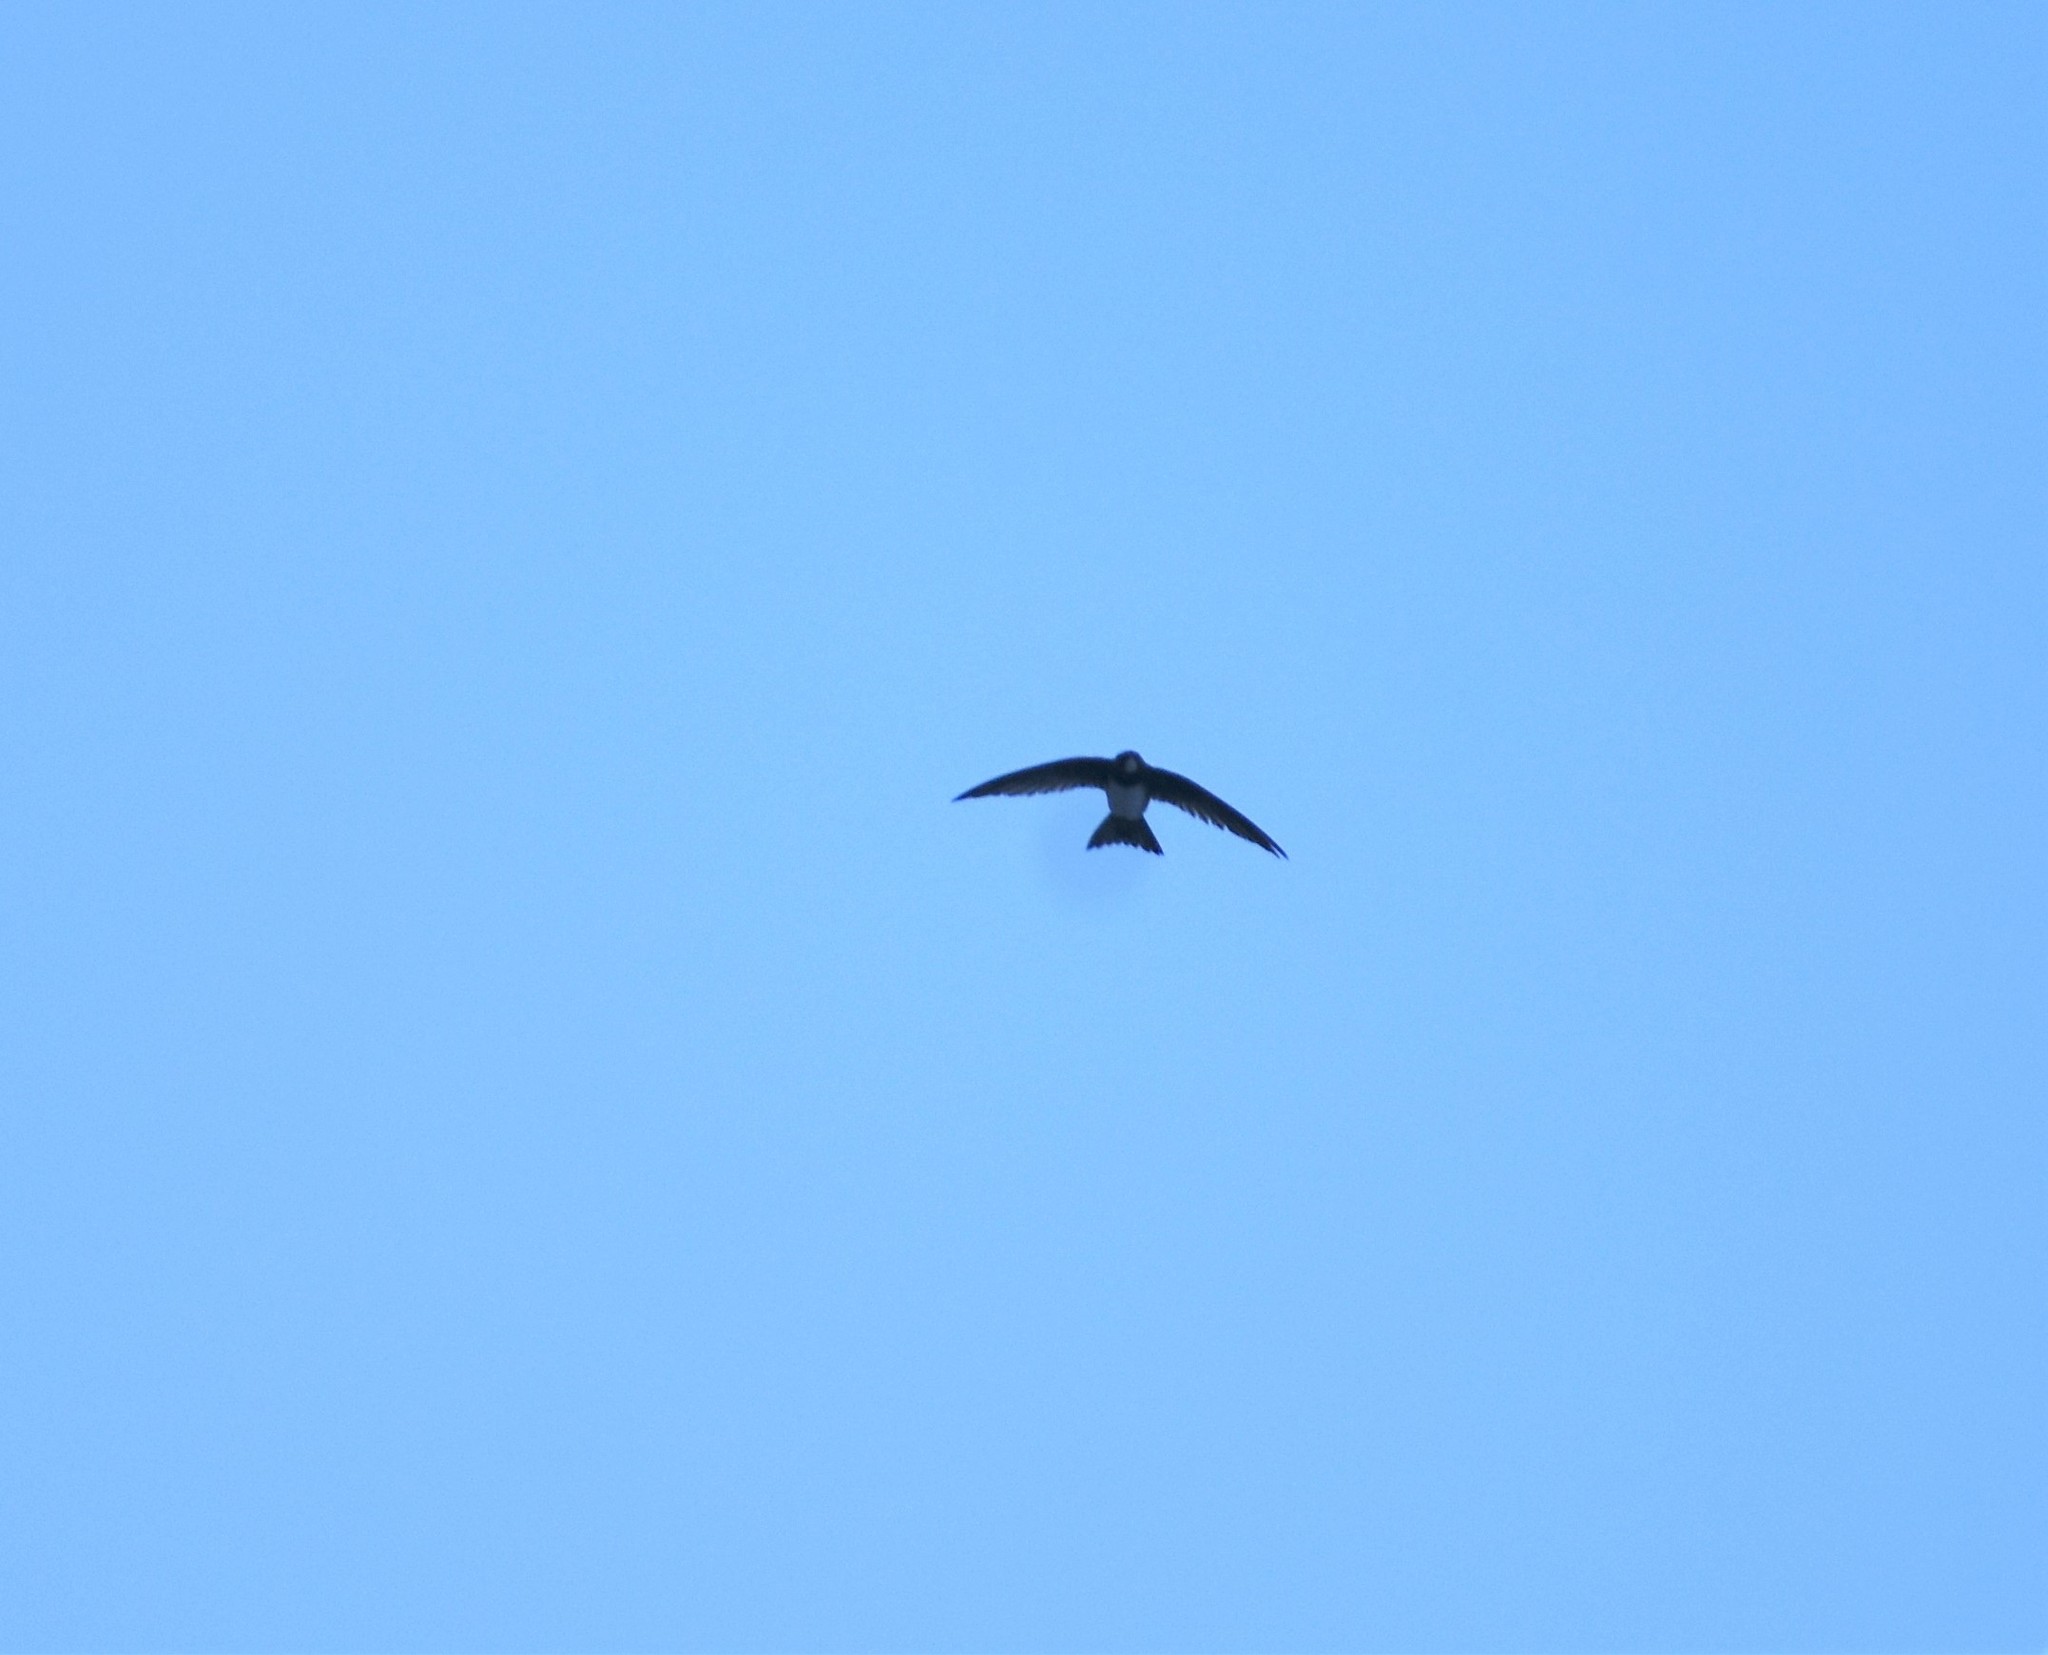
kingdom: Animalia
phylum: Chordata
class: Aves
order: Apodiformes
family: Apodidae
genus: Tachymarptis
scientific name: Tachymarptis melba
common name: Alpine swift
